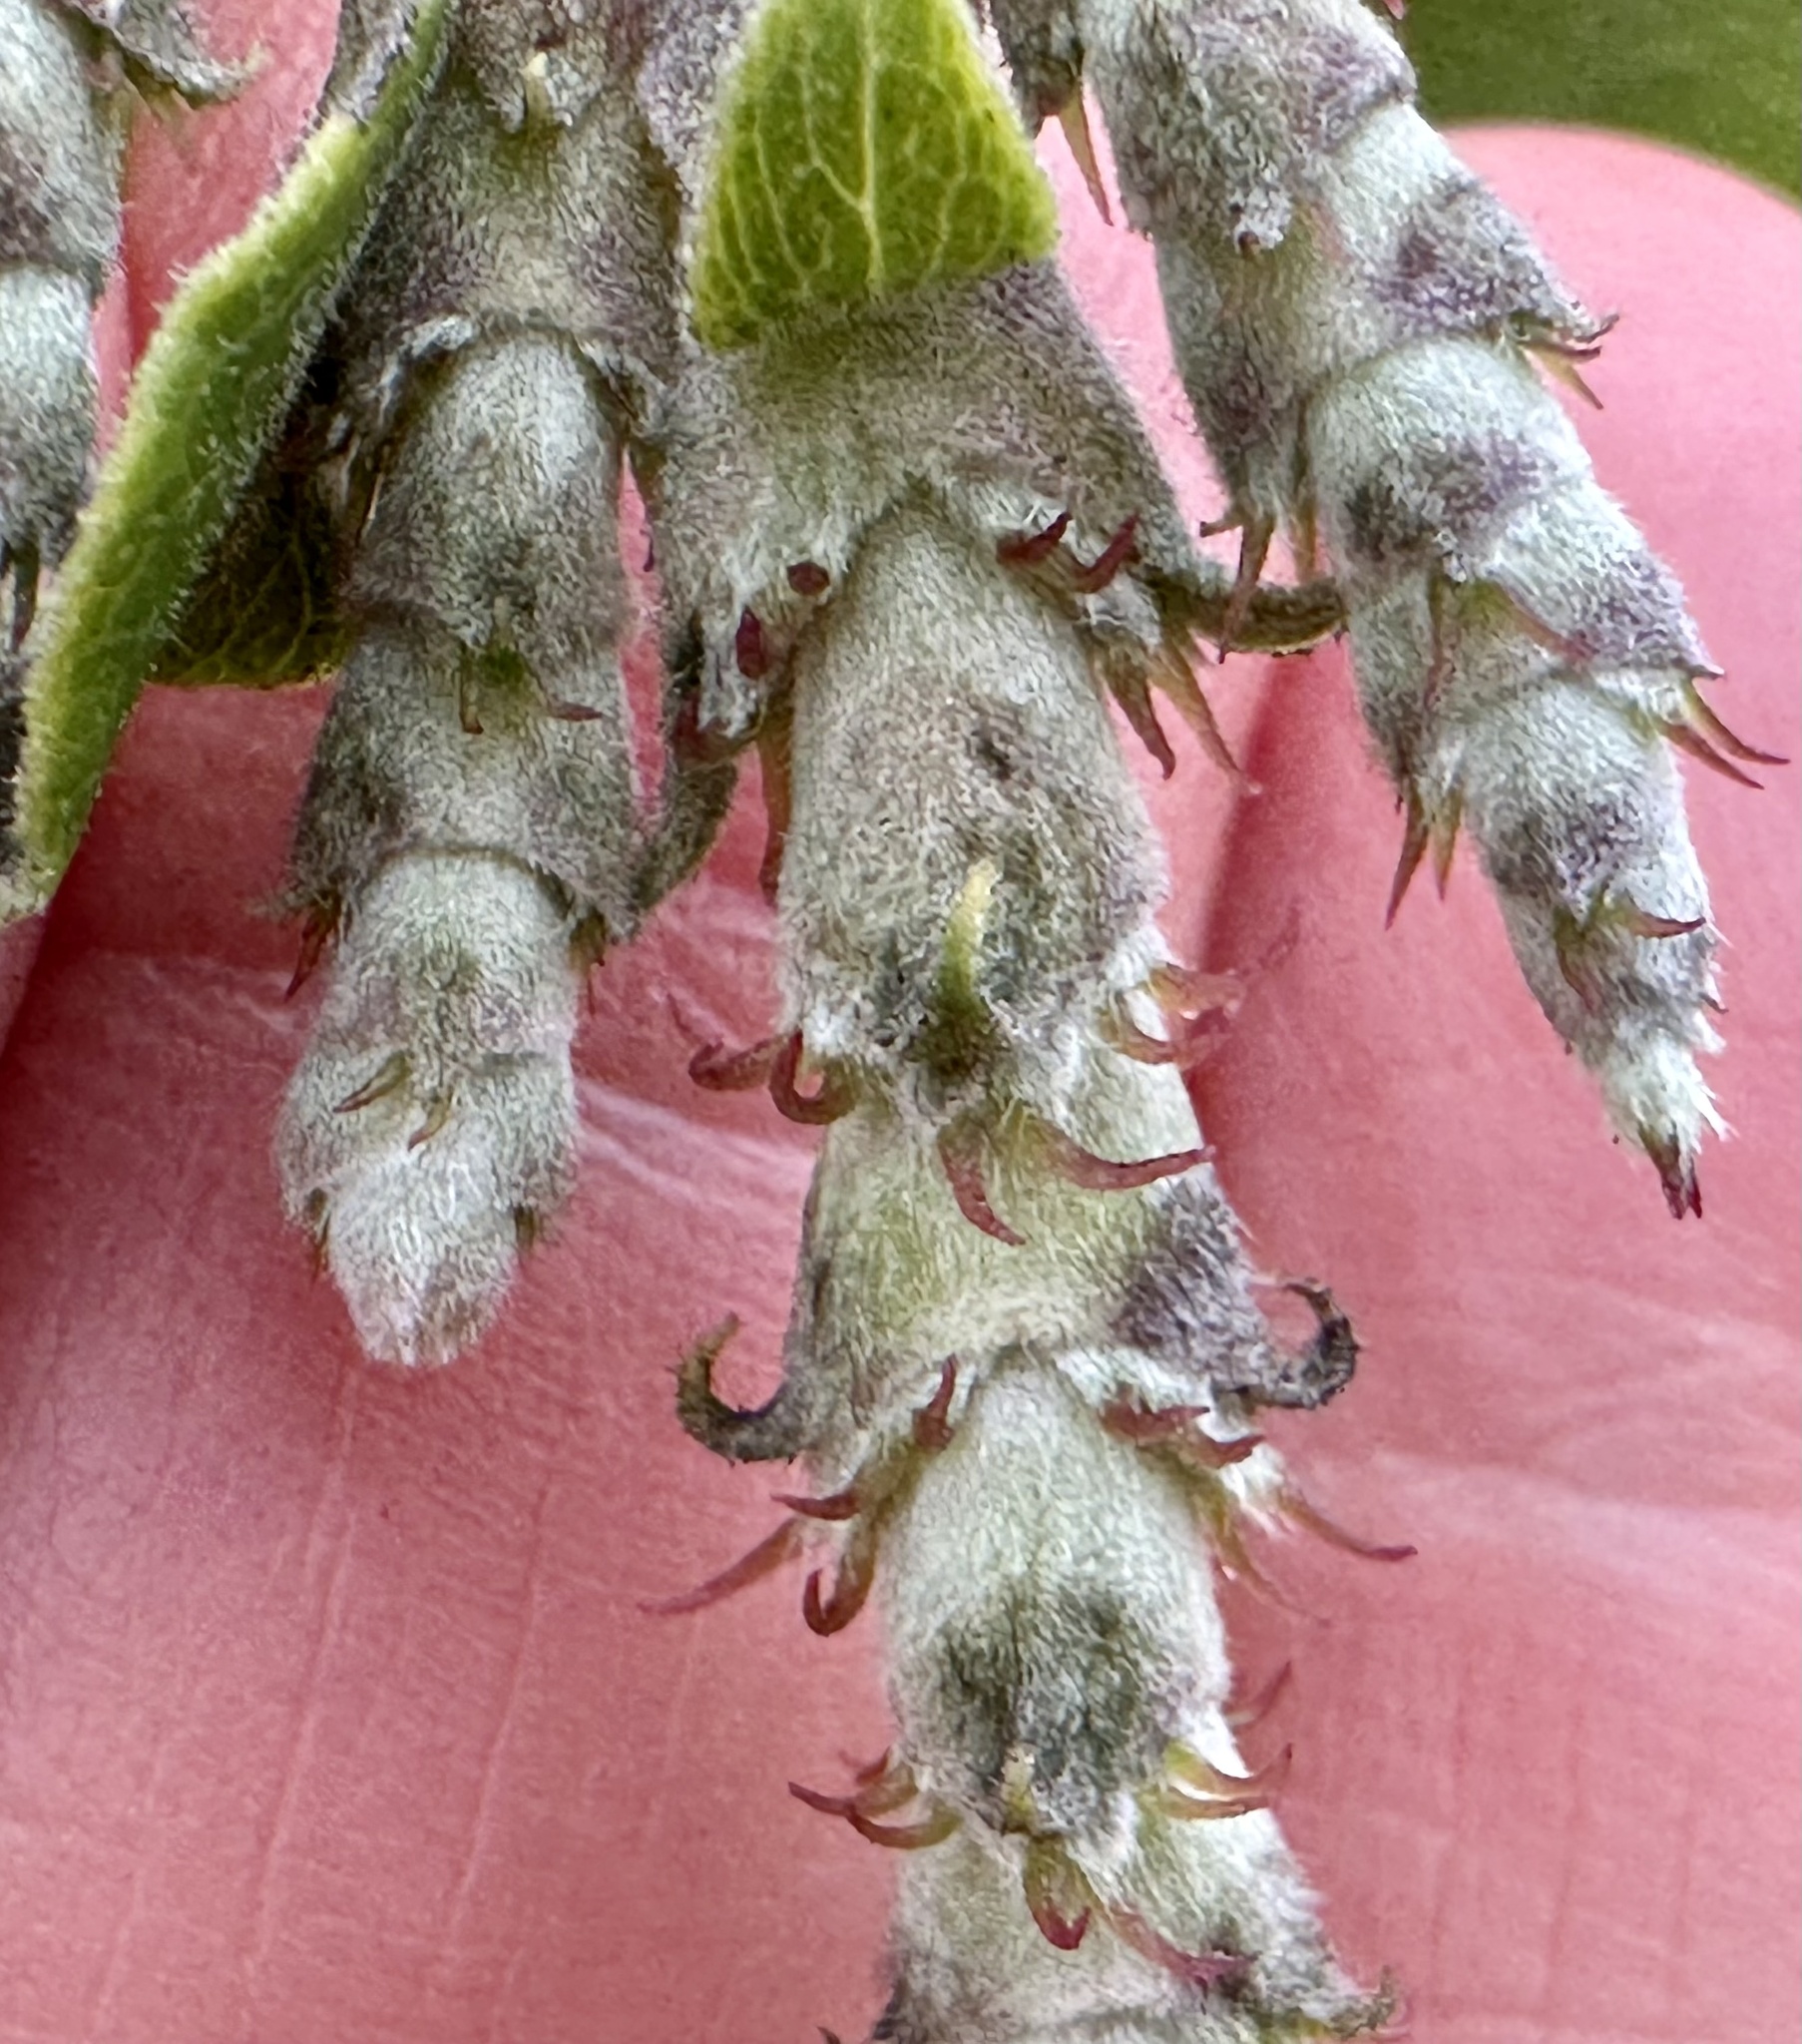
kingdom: Plantae
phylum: Tracheophyta
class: Magnoliopsida
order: Garryales
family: Garryaceae
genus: Garrya
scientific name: Garrya elliptica
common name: Silk-tassel
